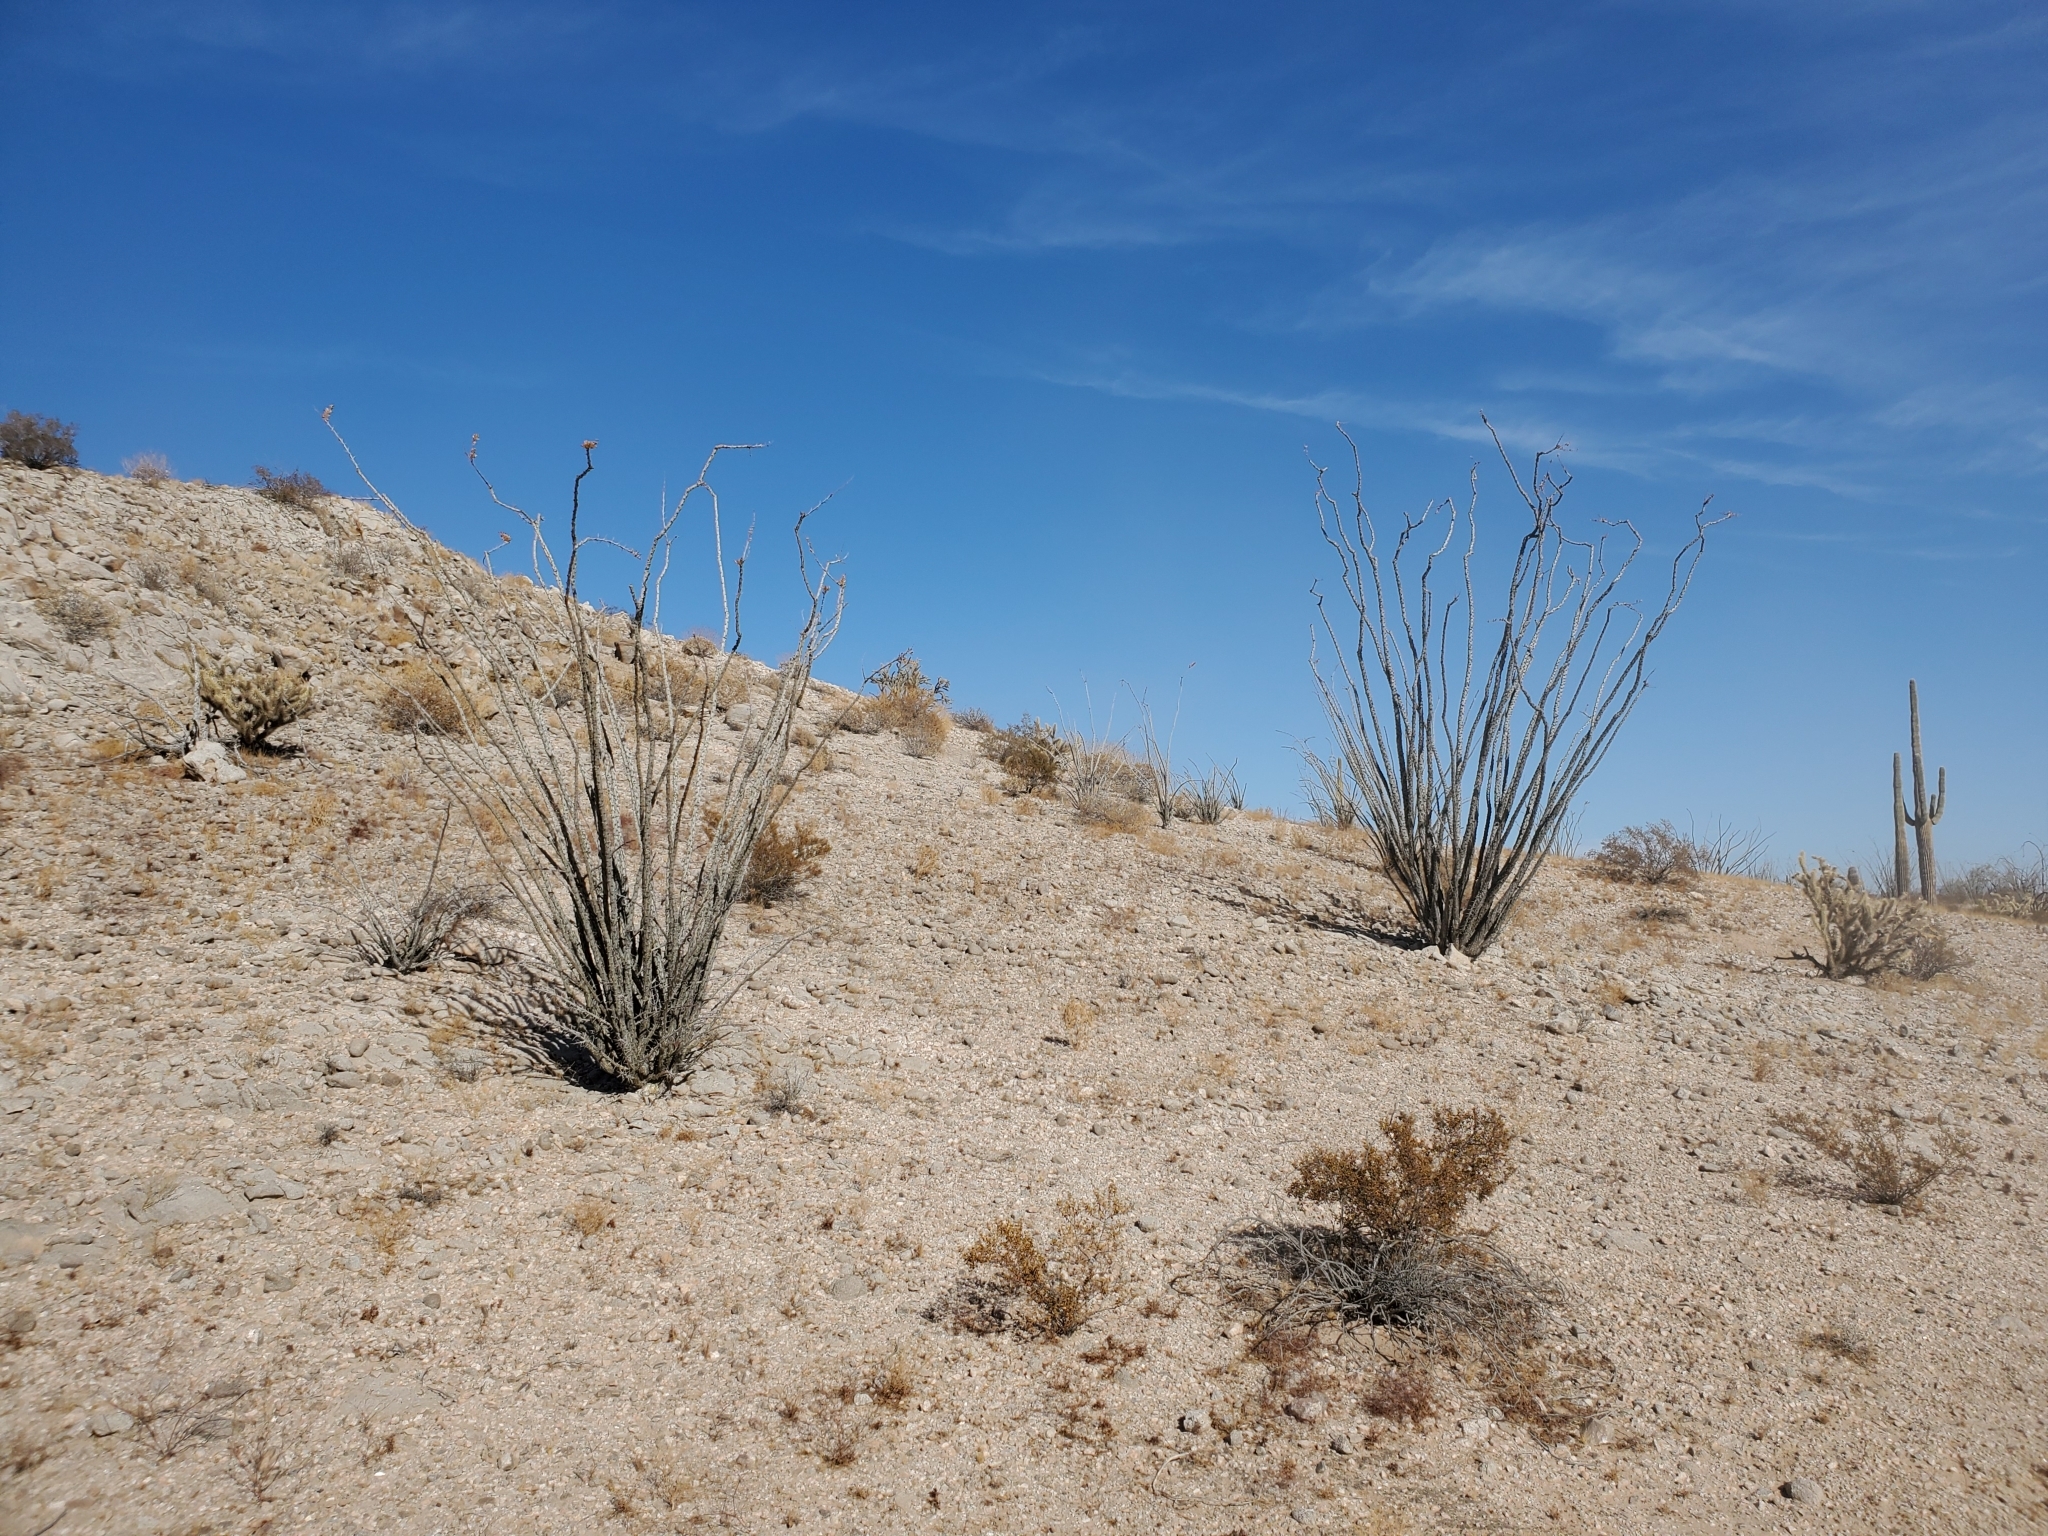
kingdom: Plantae
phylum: Tracheophyta
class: Magnoliopsida
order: Ericales
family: Fouquieriaceae
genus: Fouquieria
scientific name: Fouquieria splendens
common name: Vine-cactus
